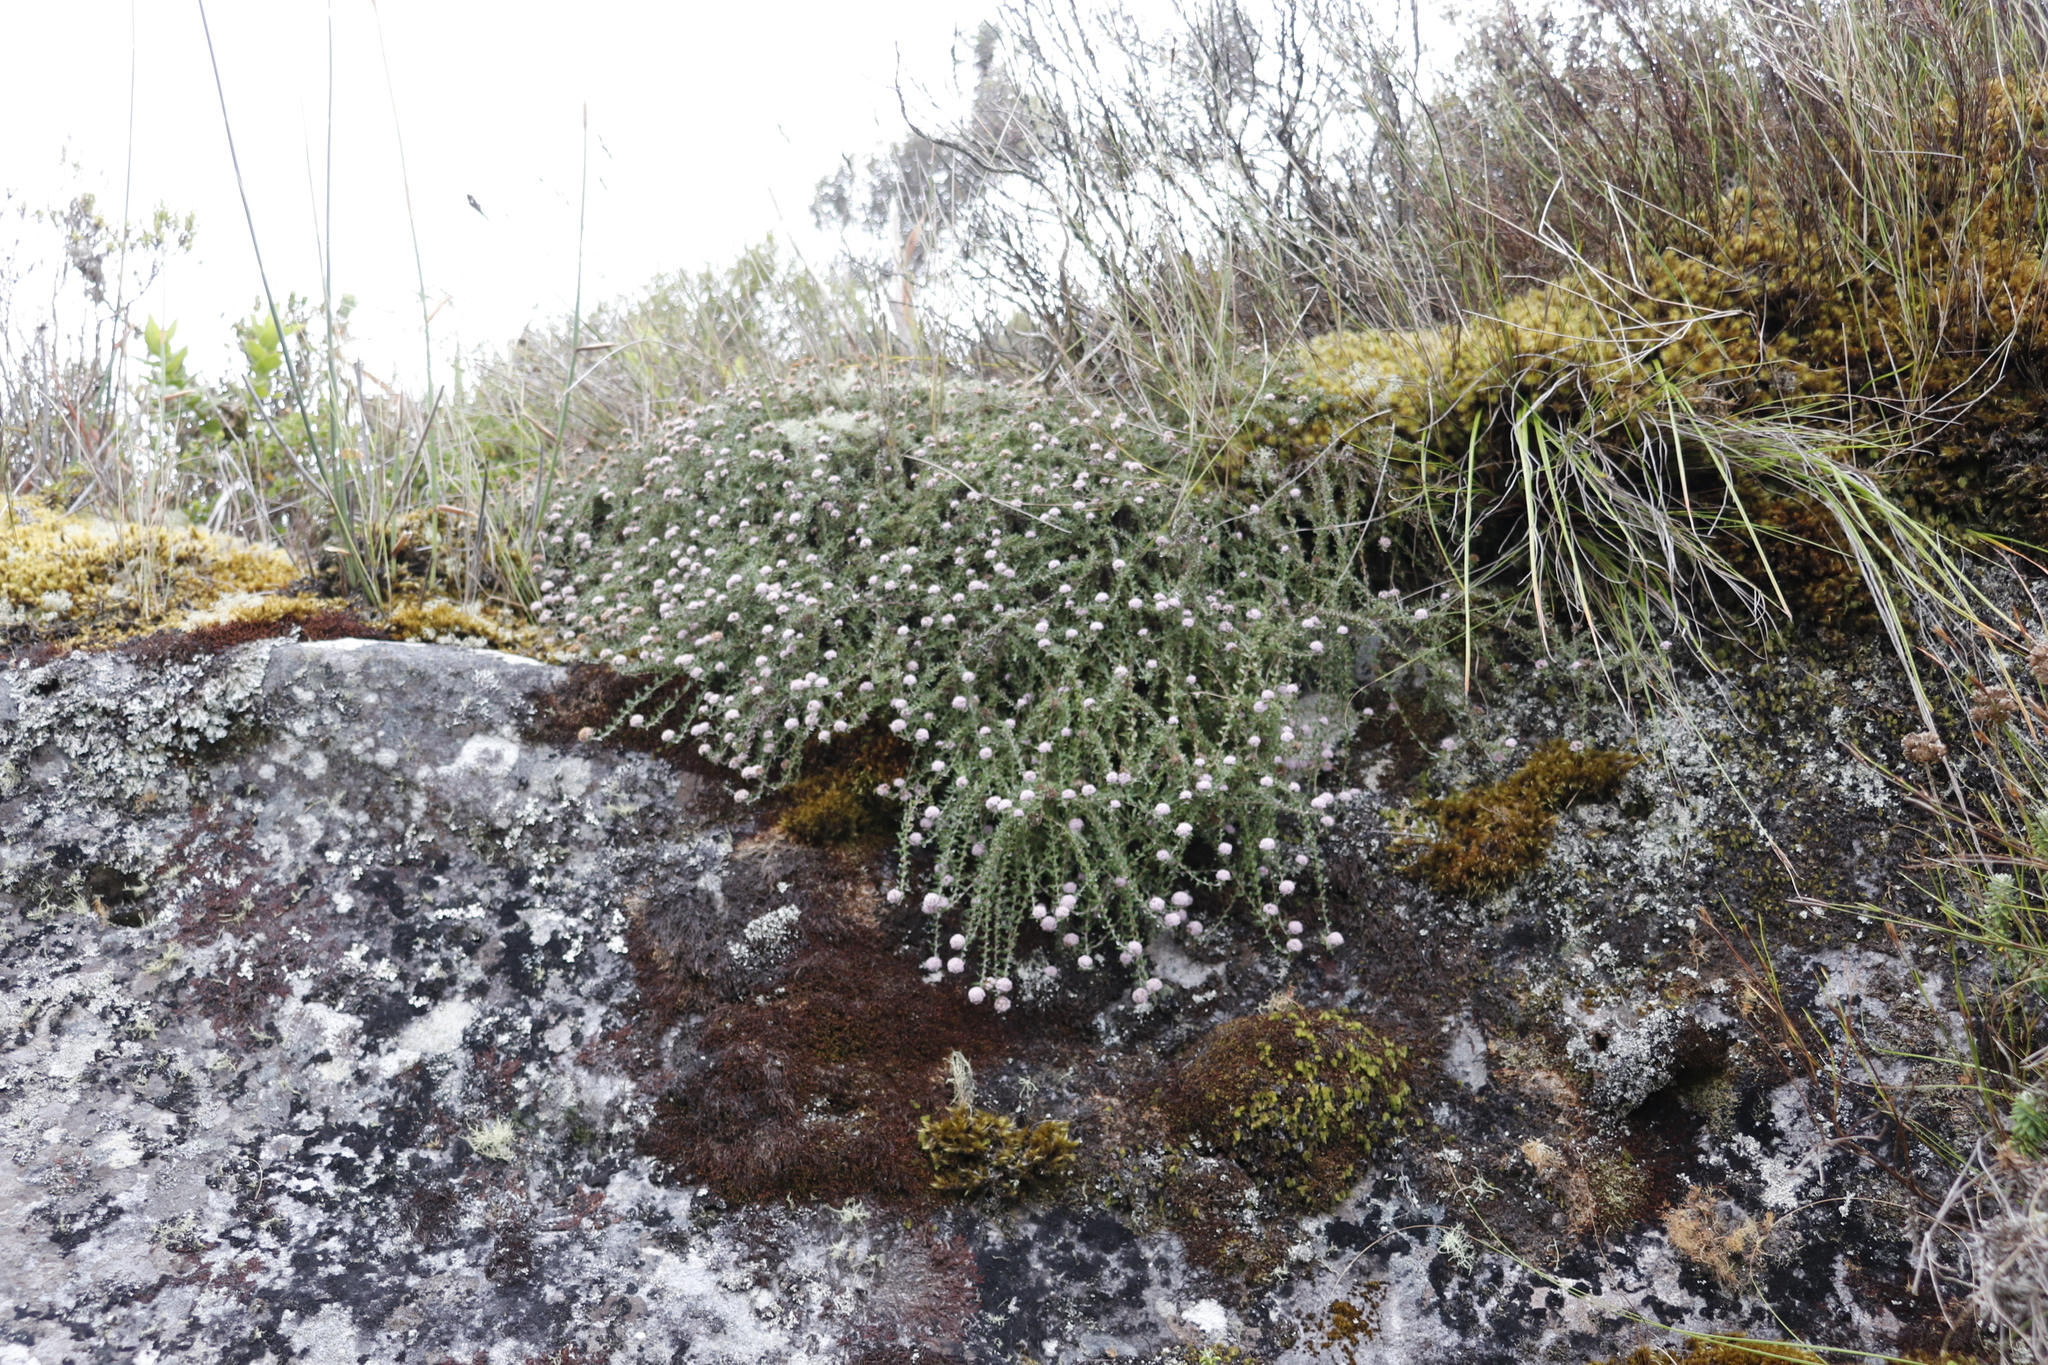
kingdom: Plantae
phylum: Tracheophyta
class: Magnoliopsida
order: Asterales
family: Asteraceae
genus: Stoebe
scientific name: Stoebe prostrata
